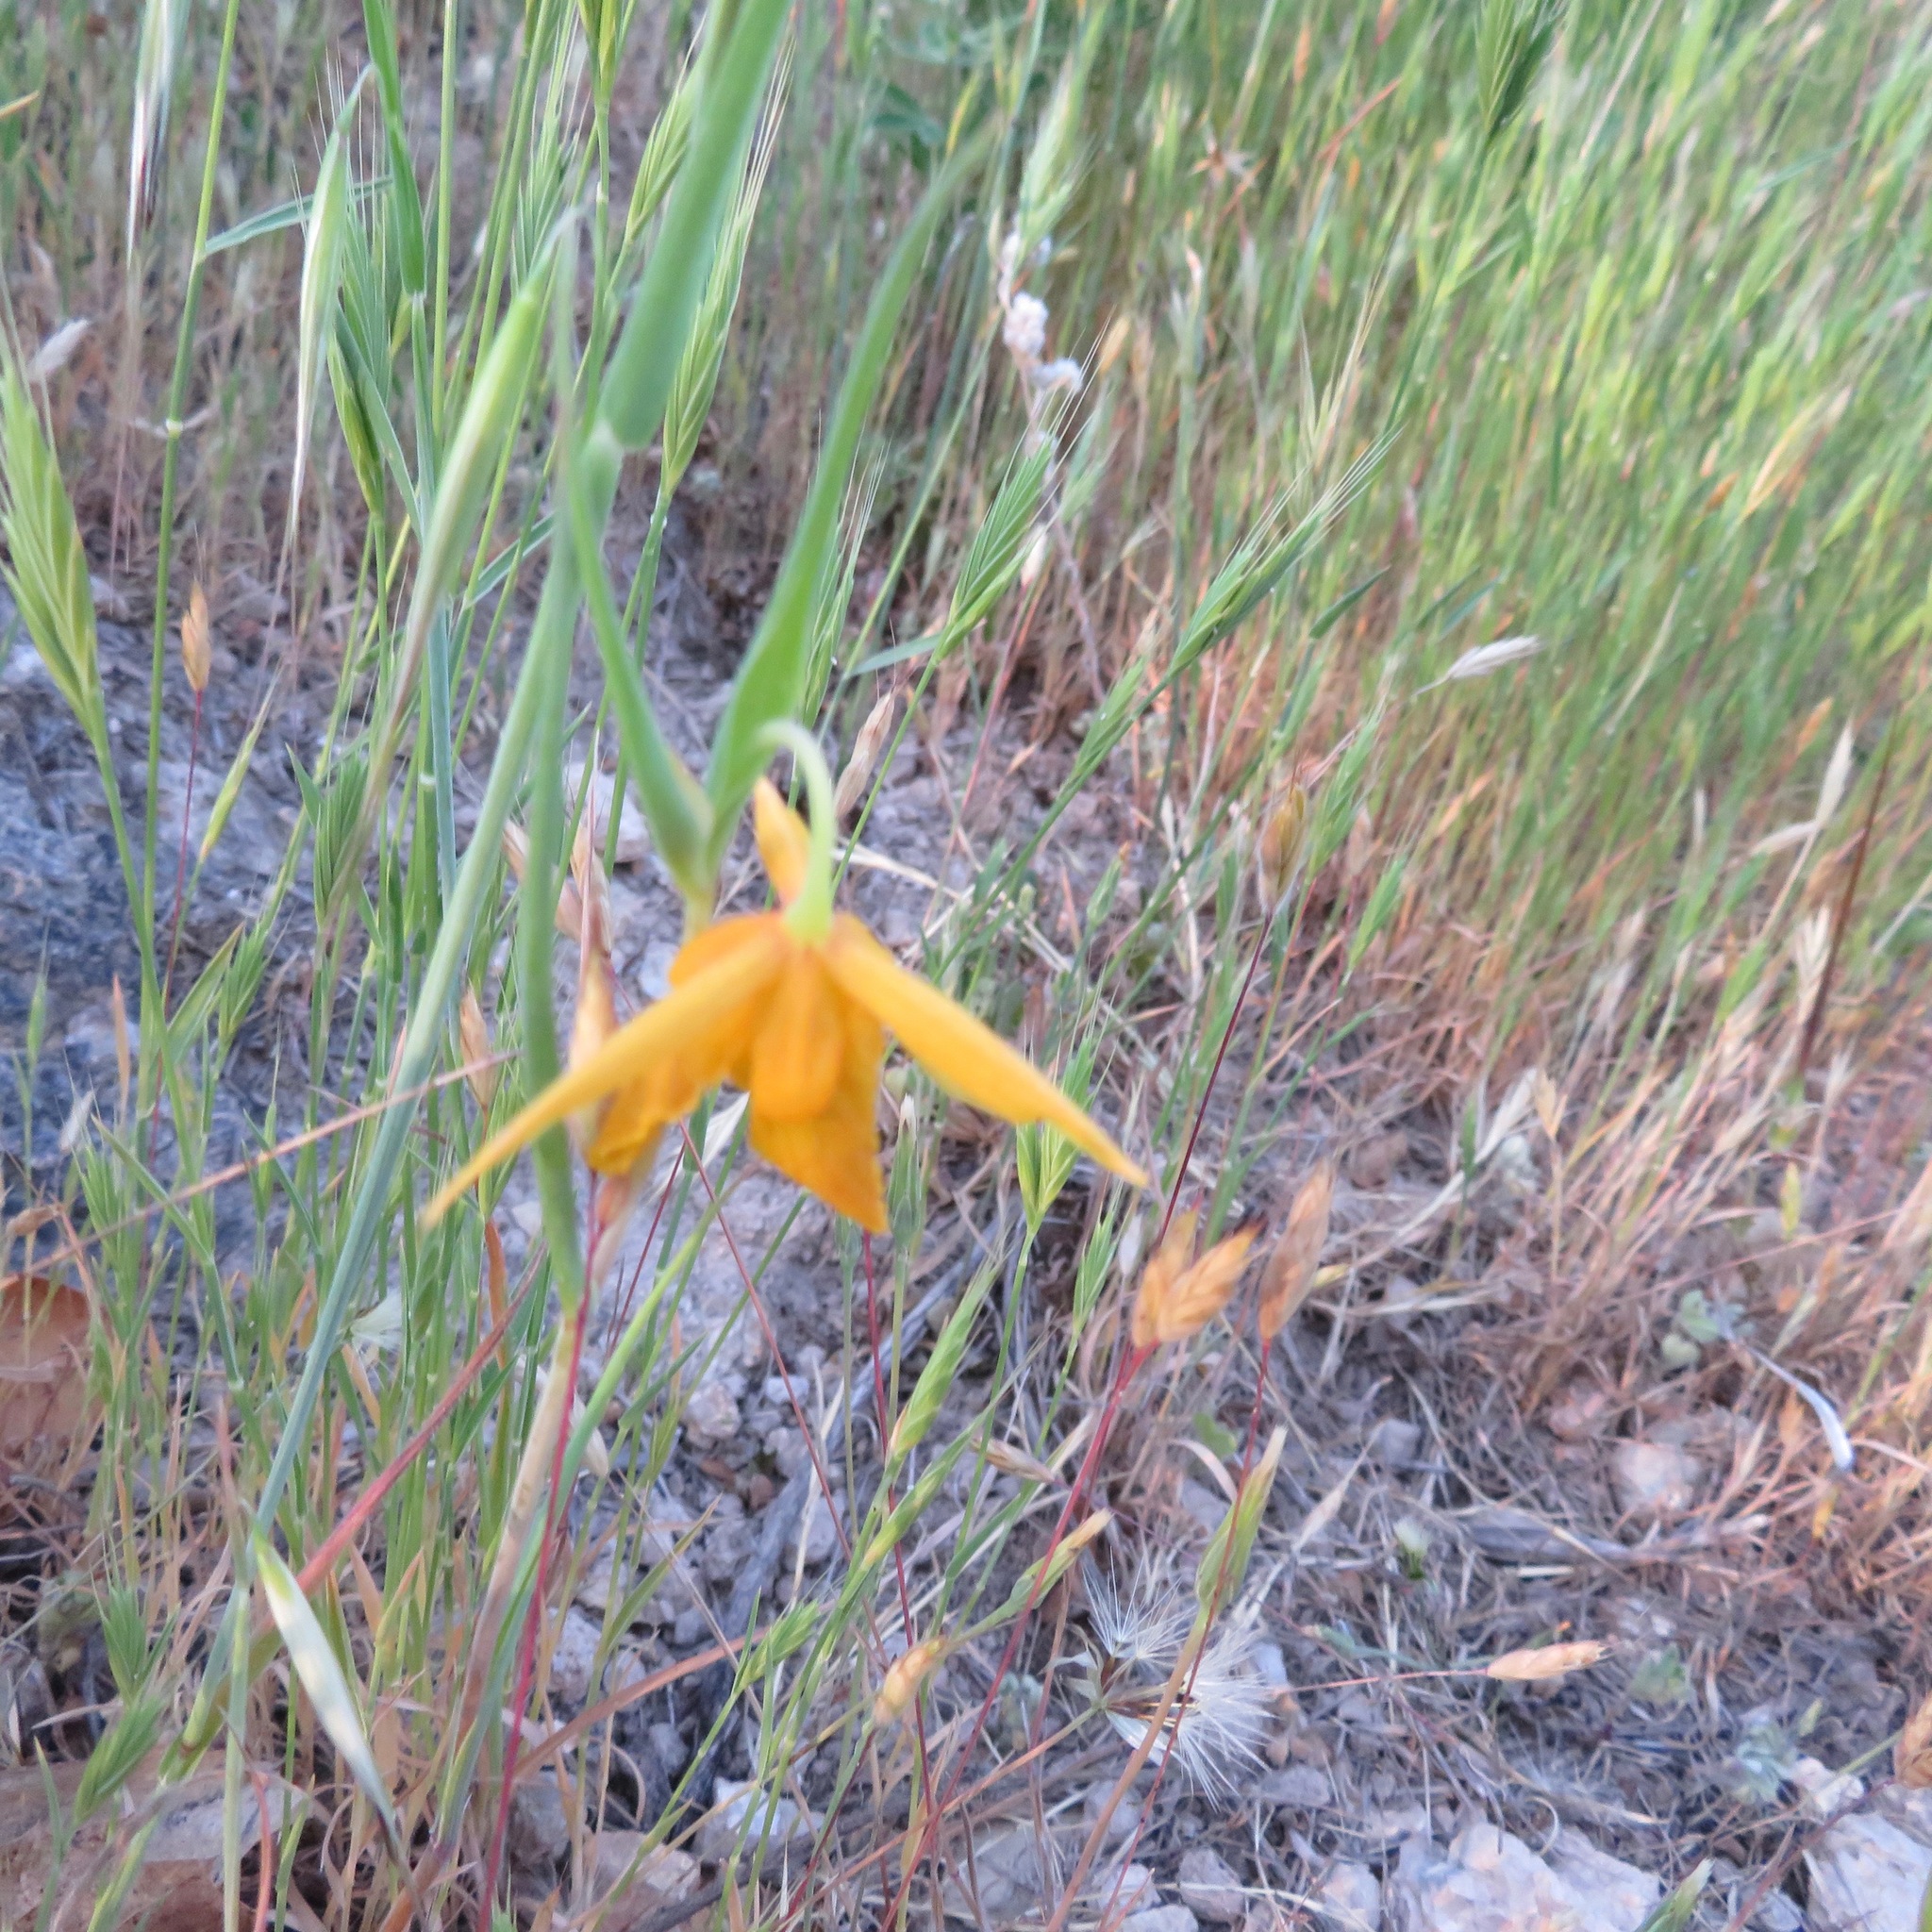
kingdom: Plantae
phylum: Tracheophyta
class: Liliopsida
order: Liliales
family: Liliaceae
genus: Calochortus
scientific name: Calochortus amabilis
